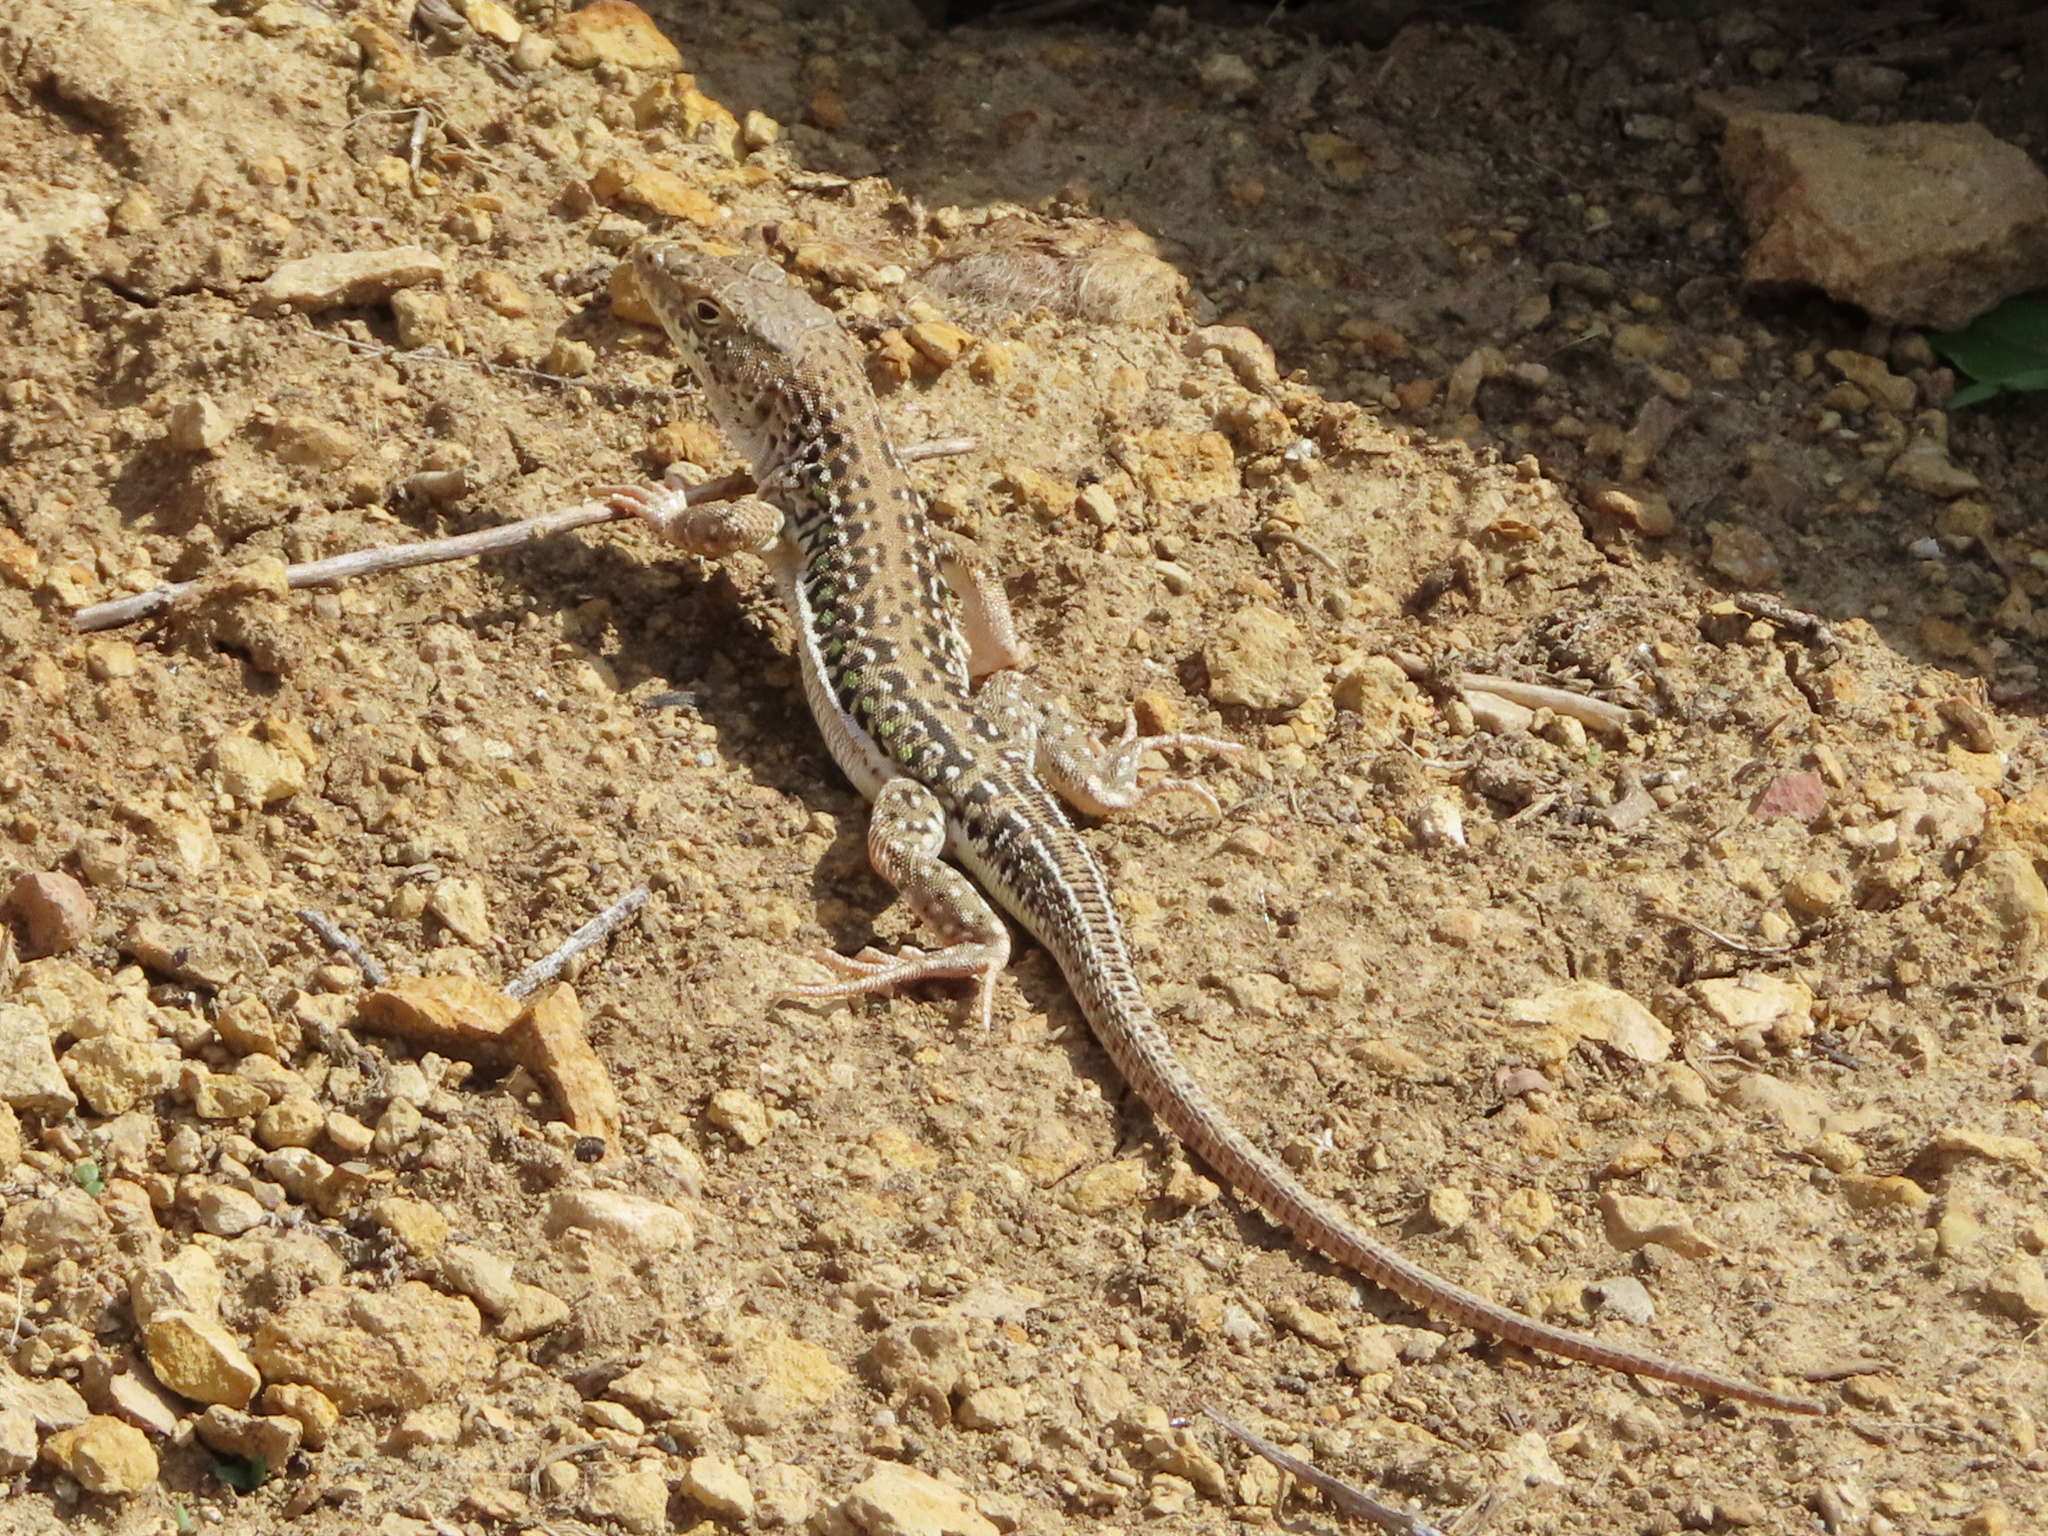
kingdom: Animalia
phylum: Chordata
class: Squamata
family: Lacertidae
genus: Eremias
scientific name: Eremias strauchi
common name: Strauch's racerunner
